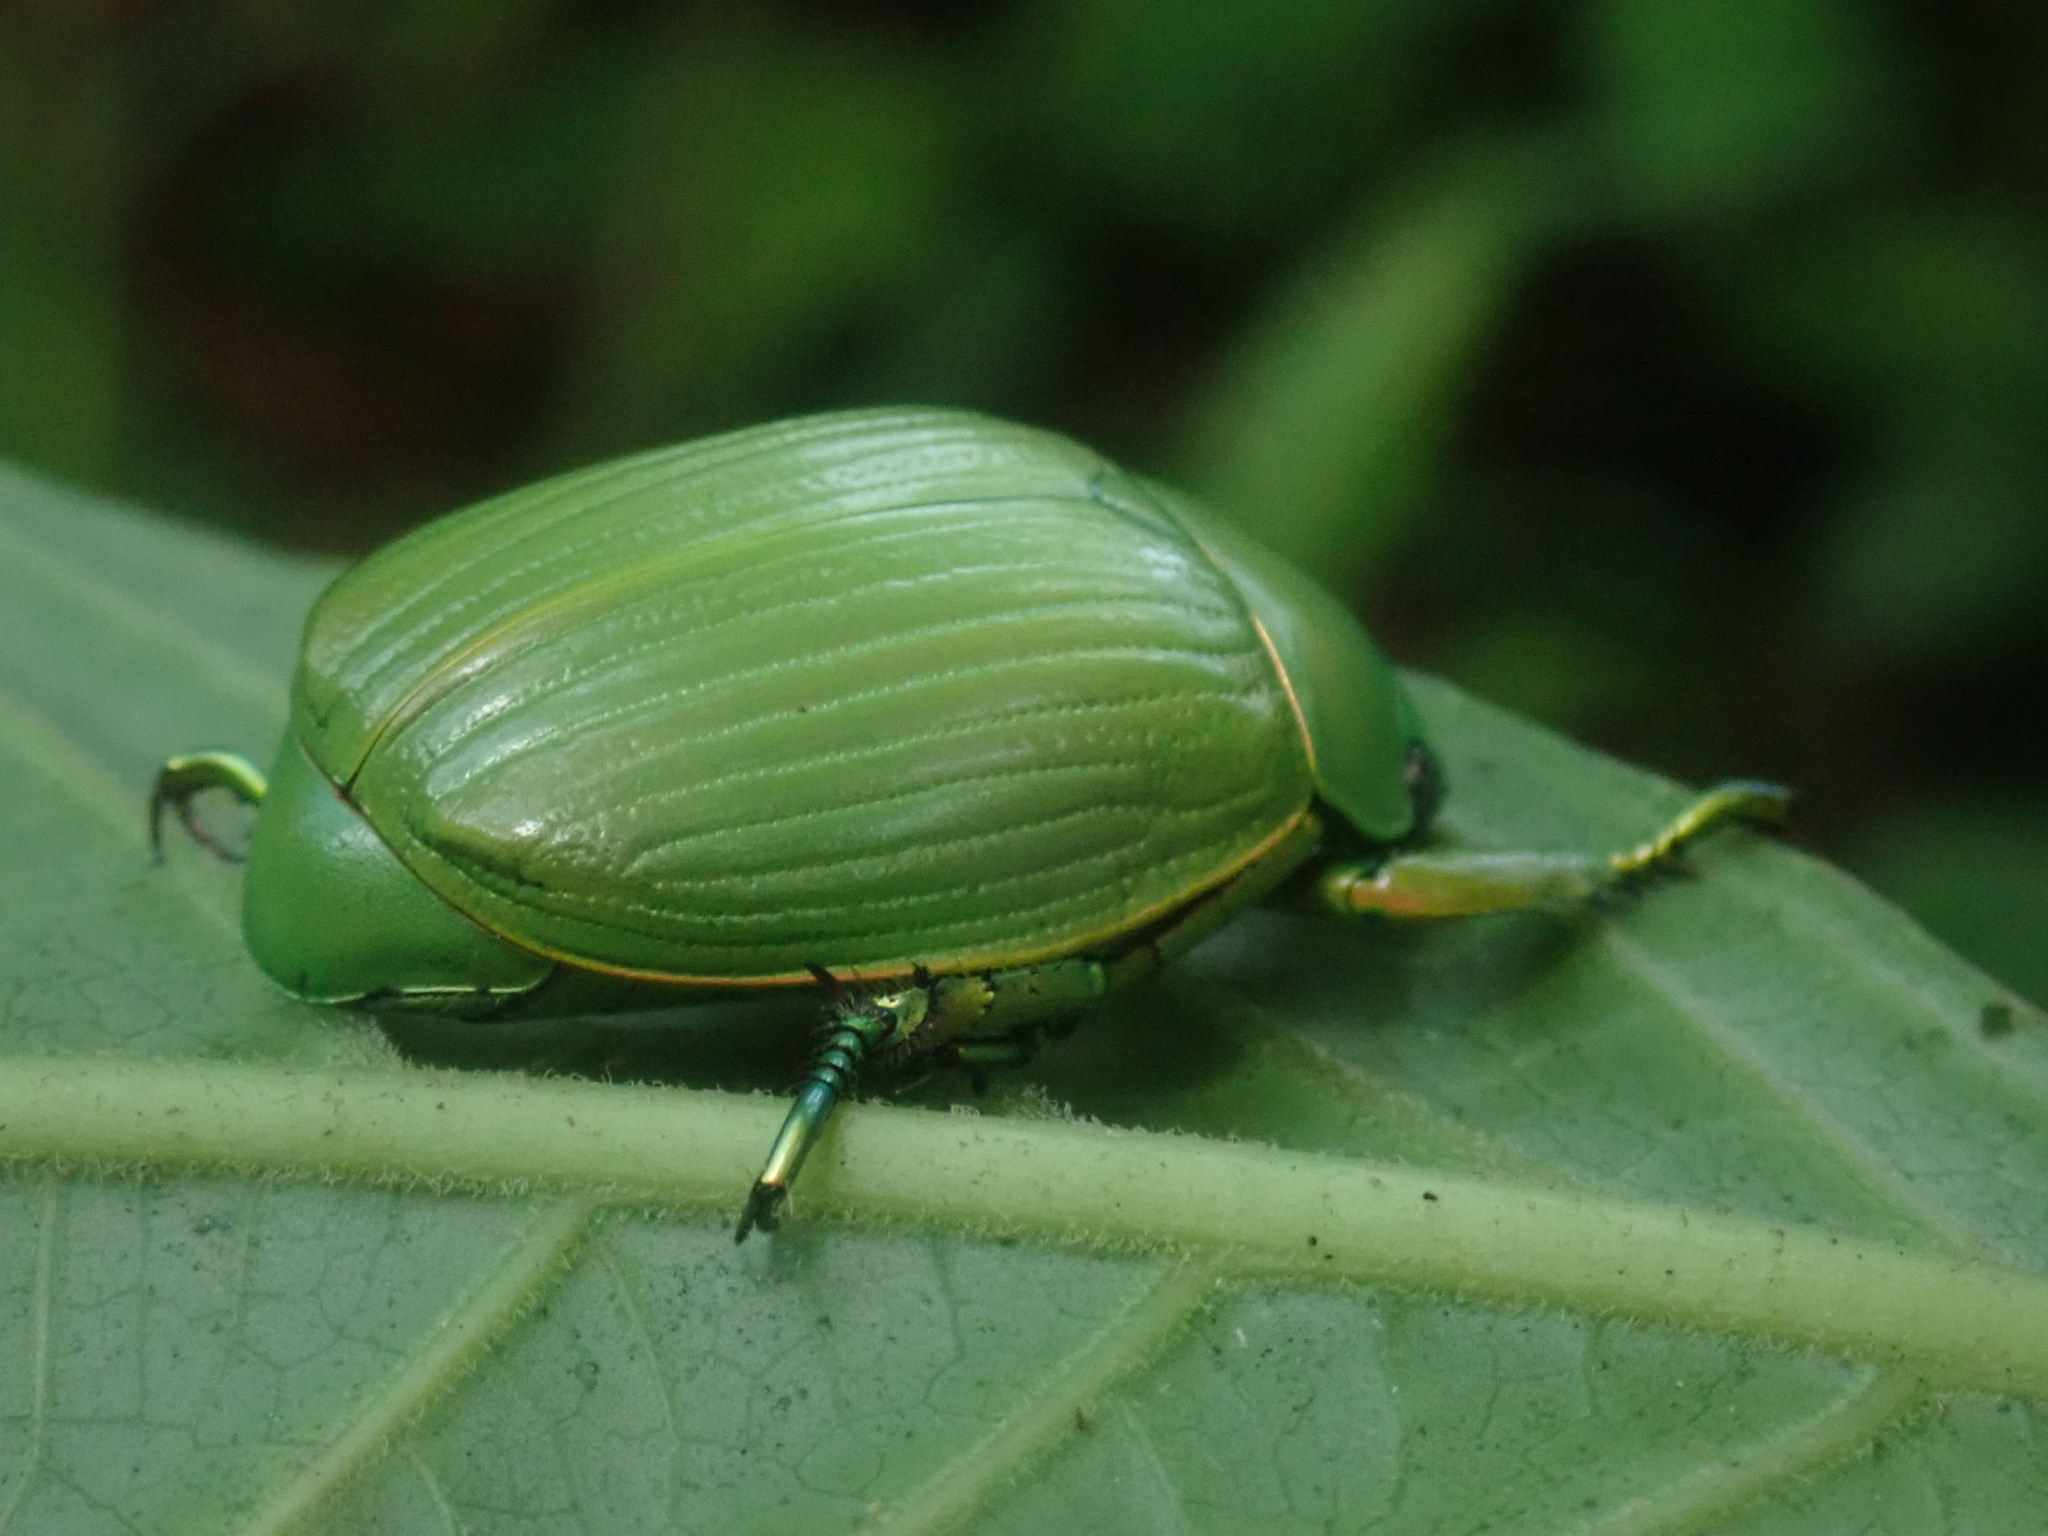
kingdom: Animalia
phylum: Arthropoda
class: Insecta
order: Coleoptera
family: Scarabaeidae
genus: Chrysina
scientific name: Chrysina costata
